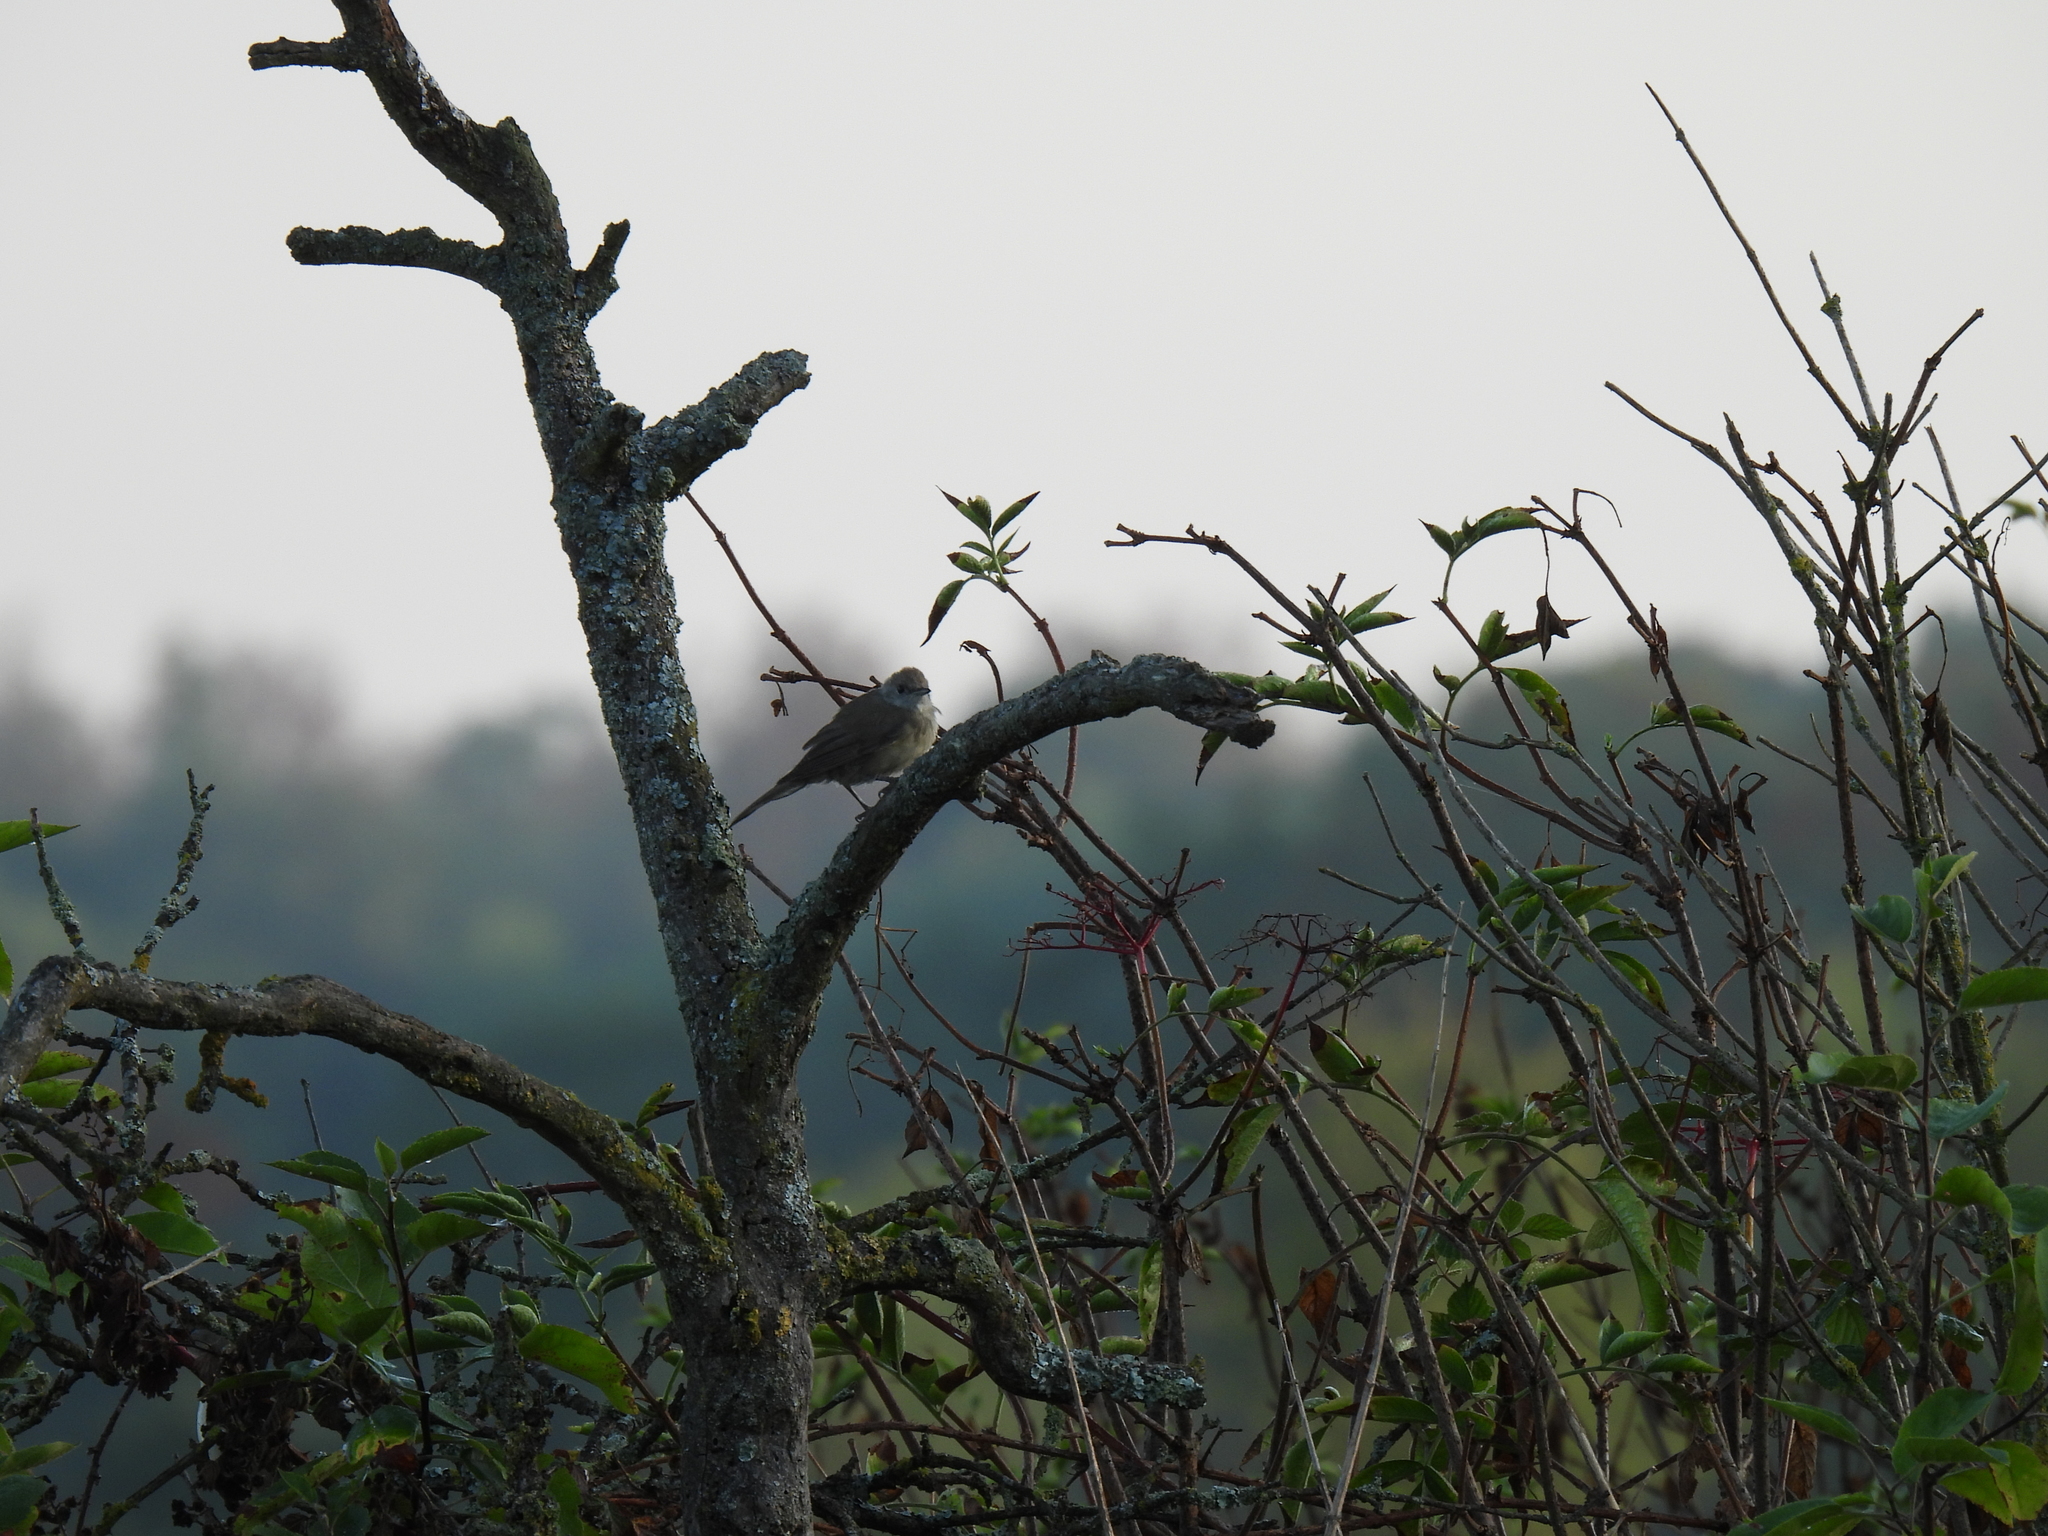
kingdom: Animalia
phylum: Chordata
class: Aves
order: Passeriformes
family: Sylviidae
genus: Sylvia
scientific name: Sylvia atricapilla
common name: Eurasian blackcap
